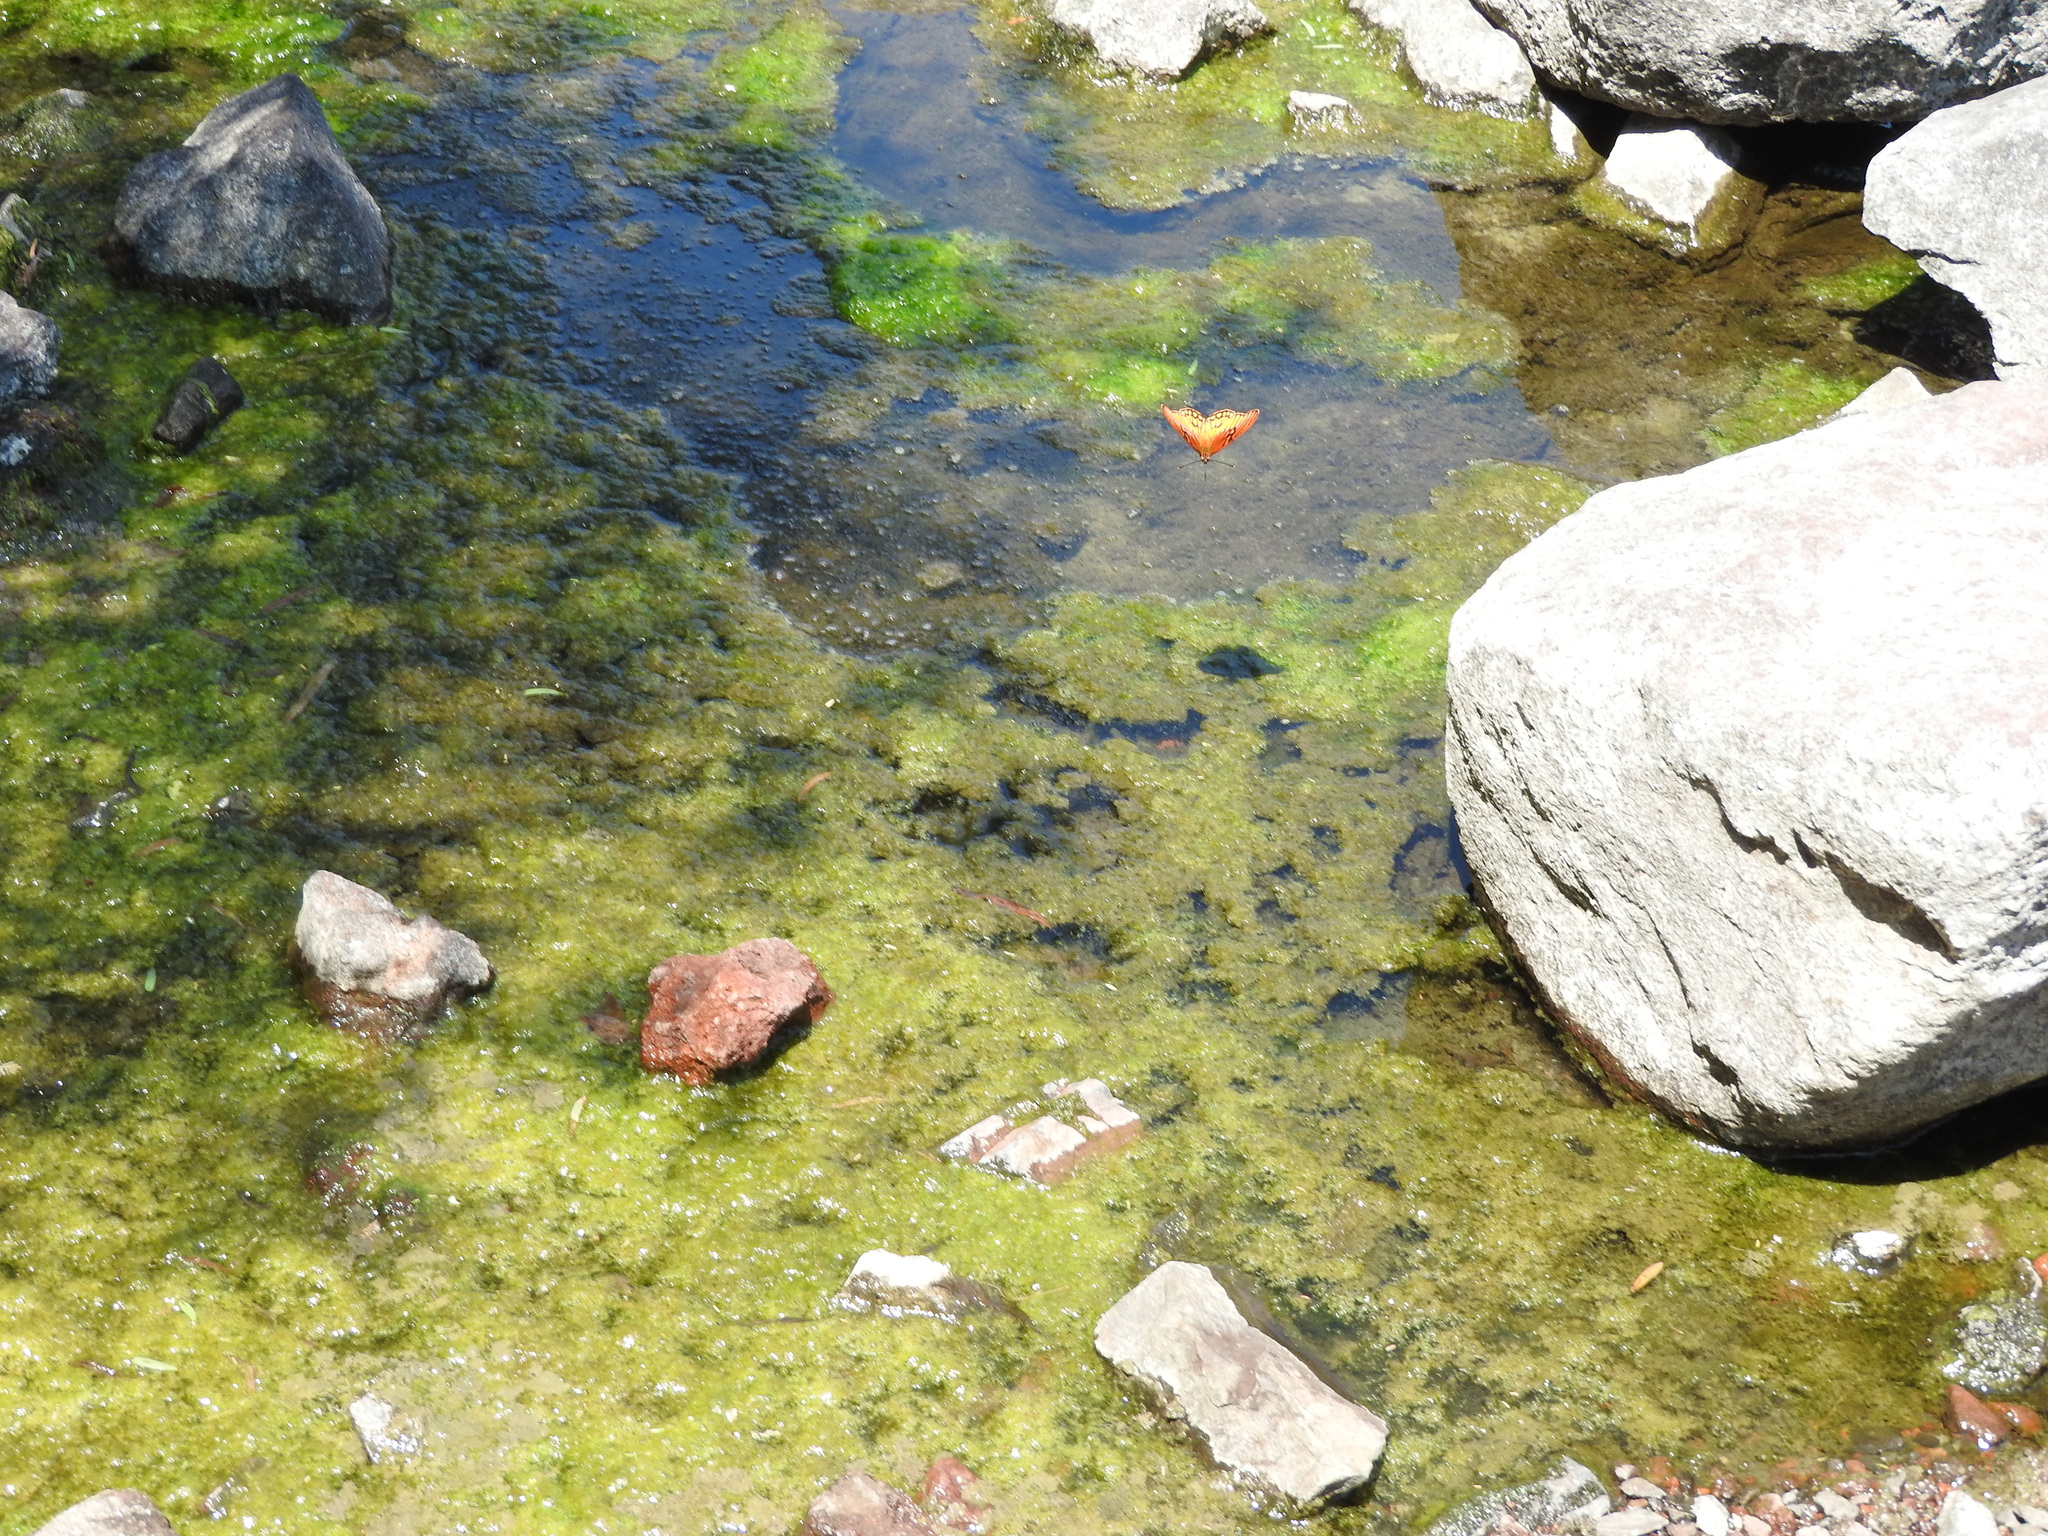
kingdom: Animalia
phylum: Arthropoda
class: Insecta
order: Lepidoptera
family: Nymphalidae
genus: Dione
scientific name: Dione moneta
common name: Mexican silverspot
